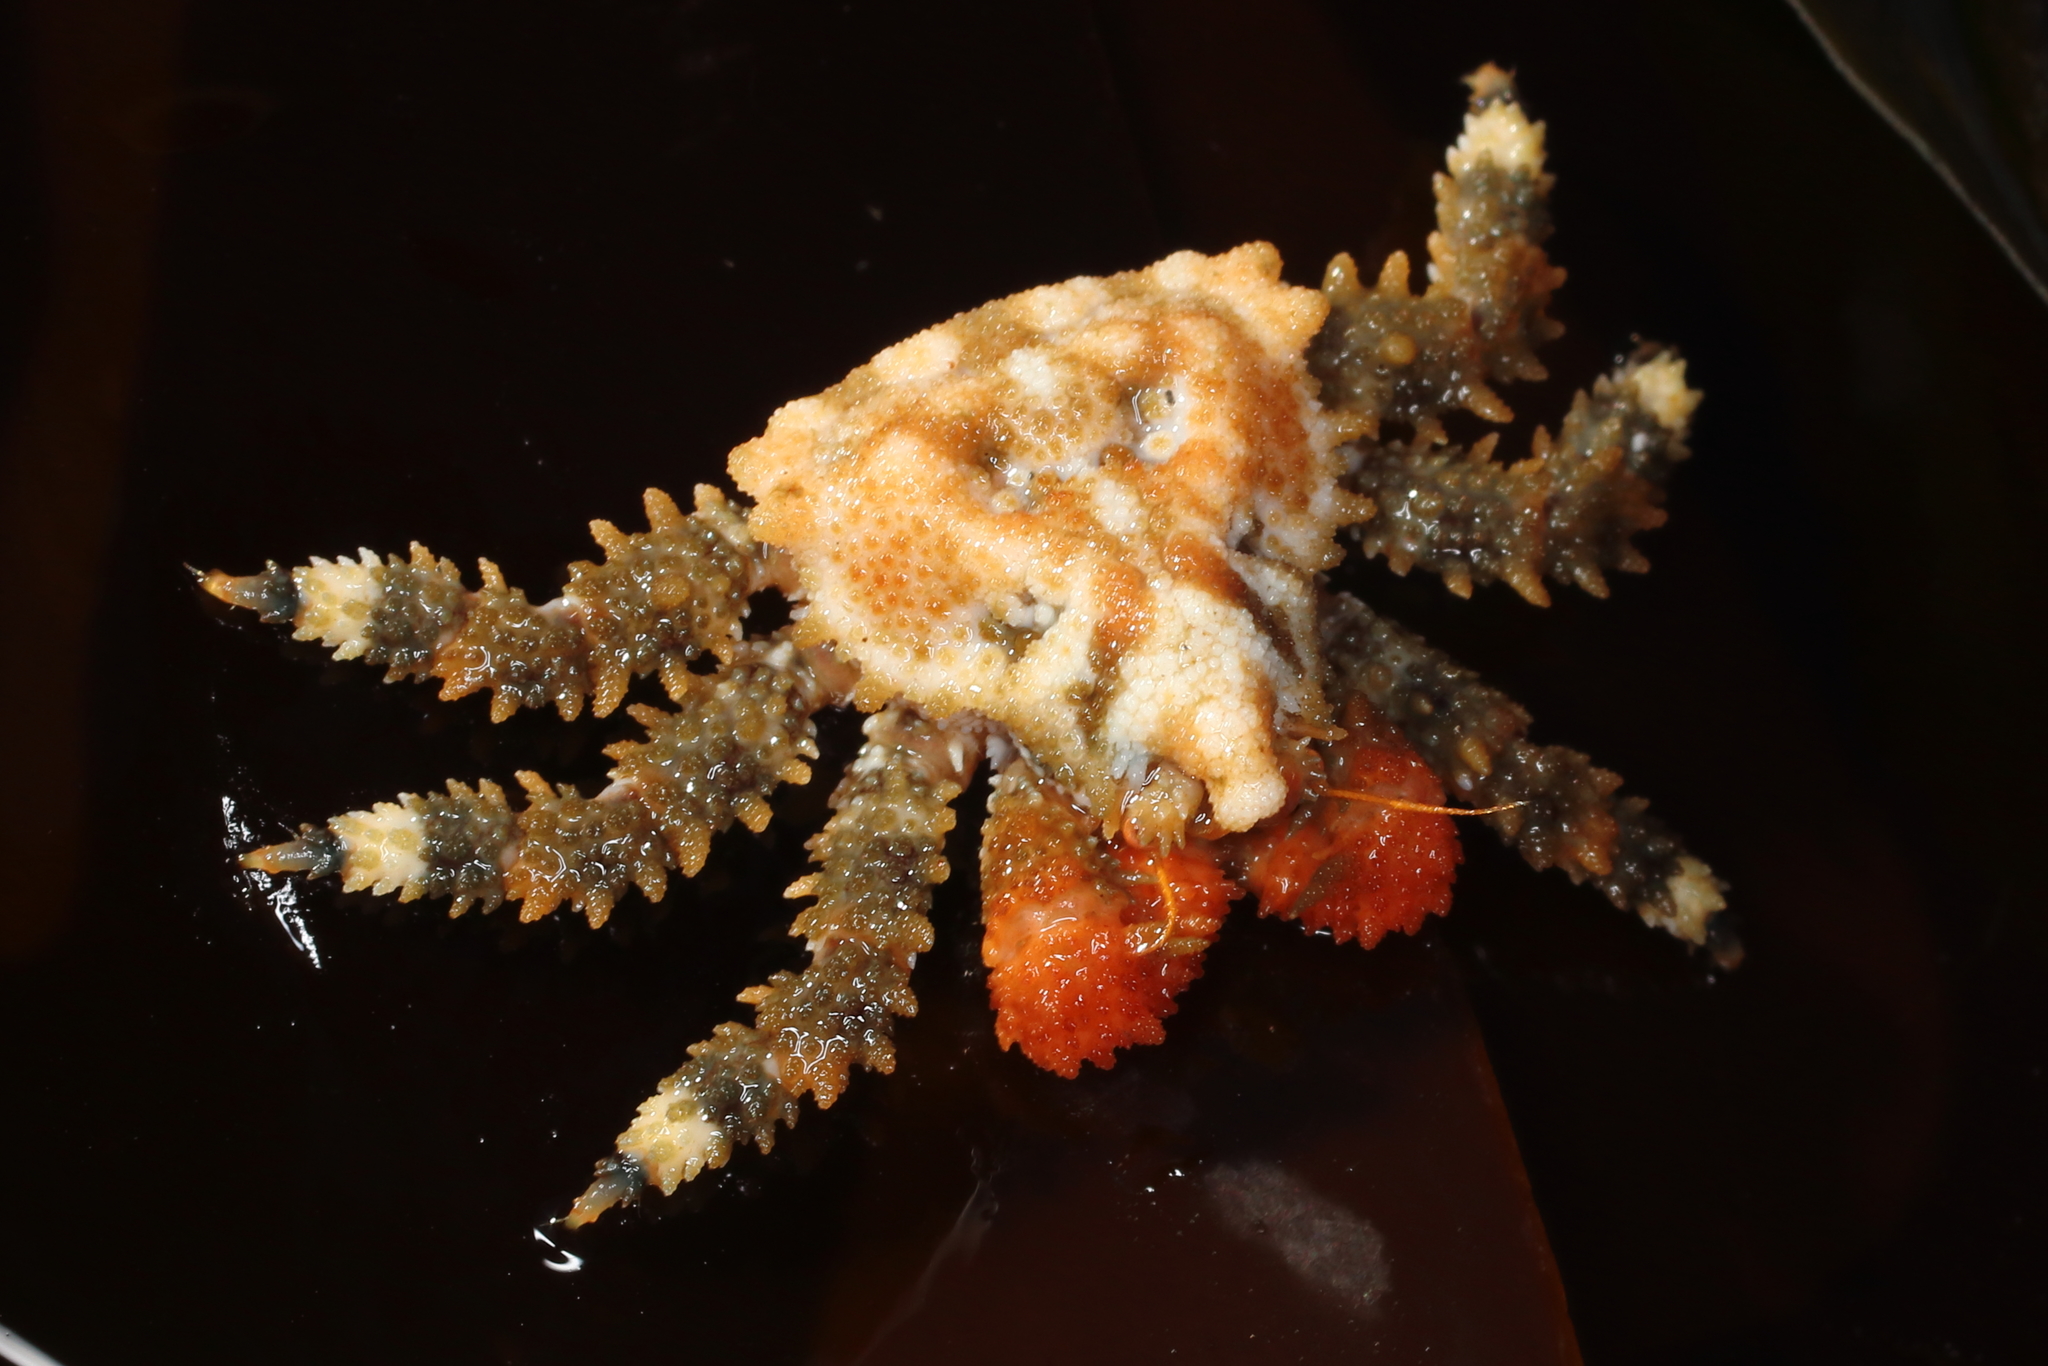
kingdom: Animalia
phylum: Arthropoda
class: Malacostraca
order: Decapoda
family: Lithodidae
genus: Phyllolithodes
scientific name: Phyllolithodes papillosus
